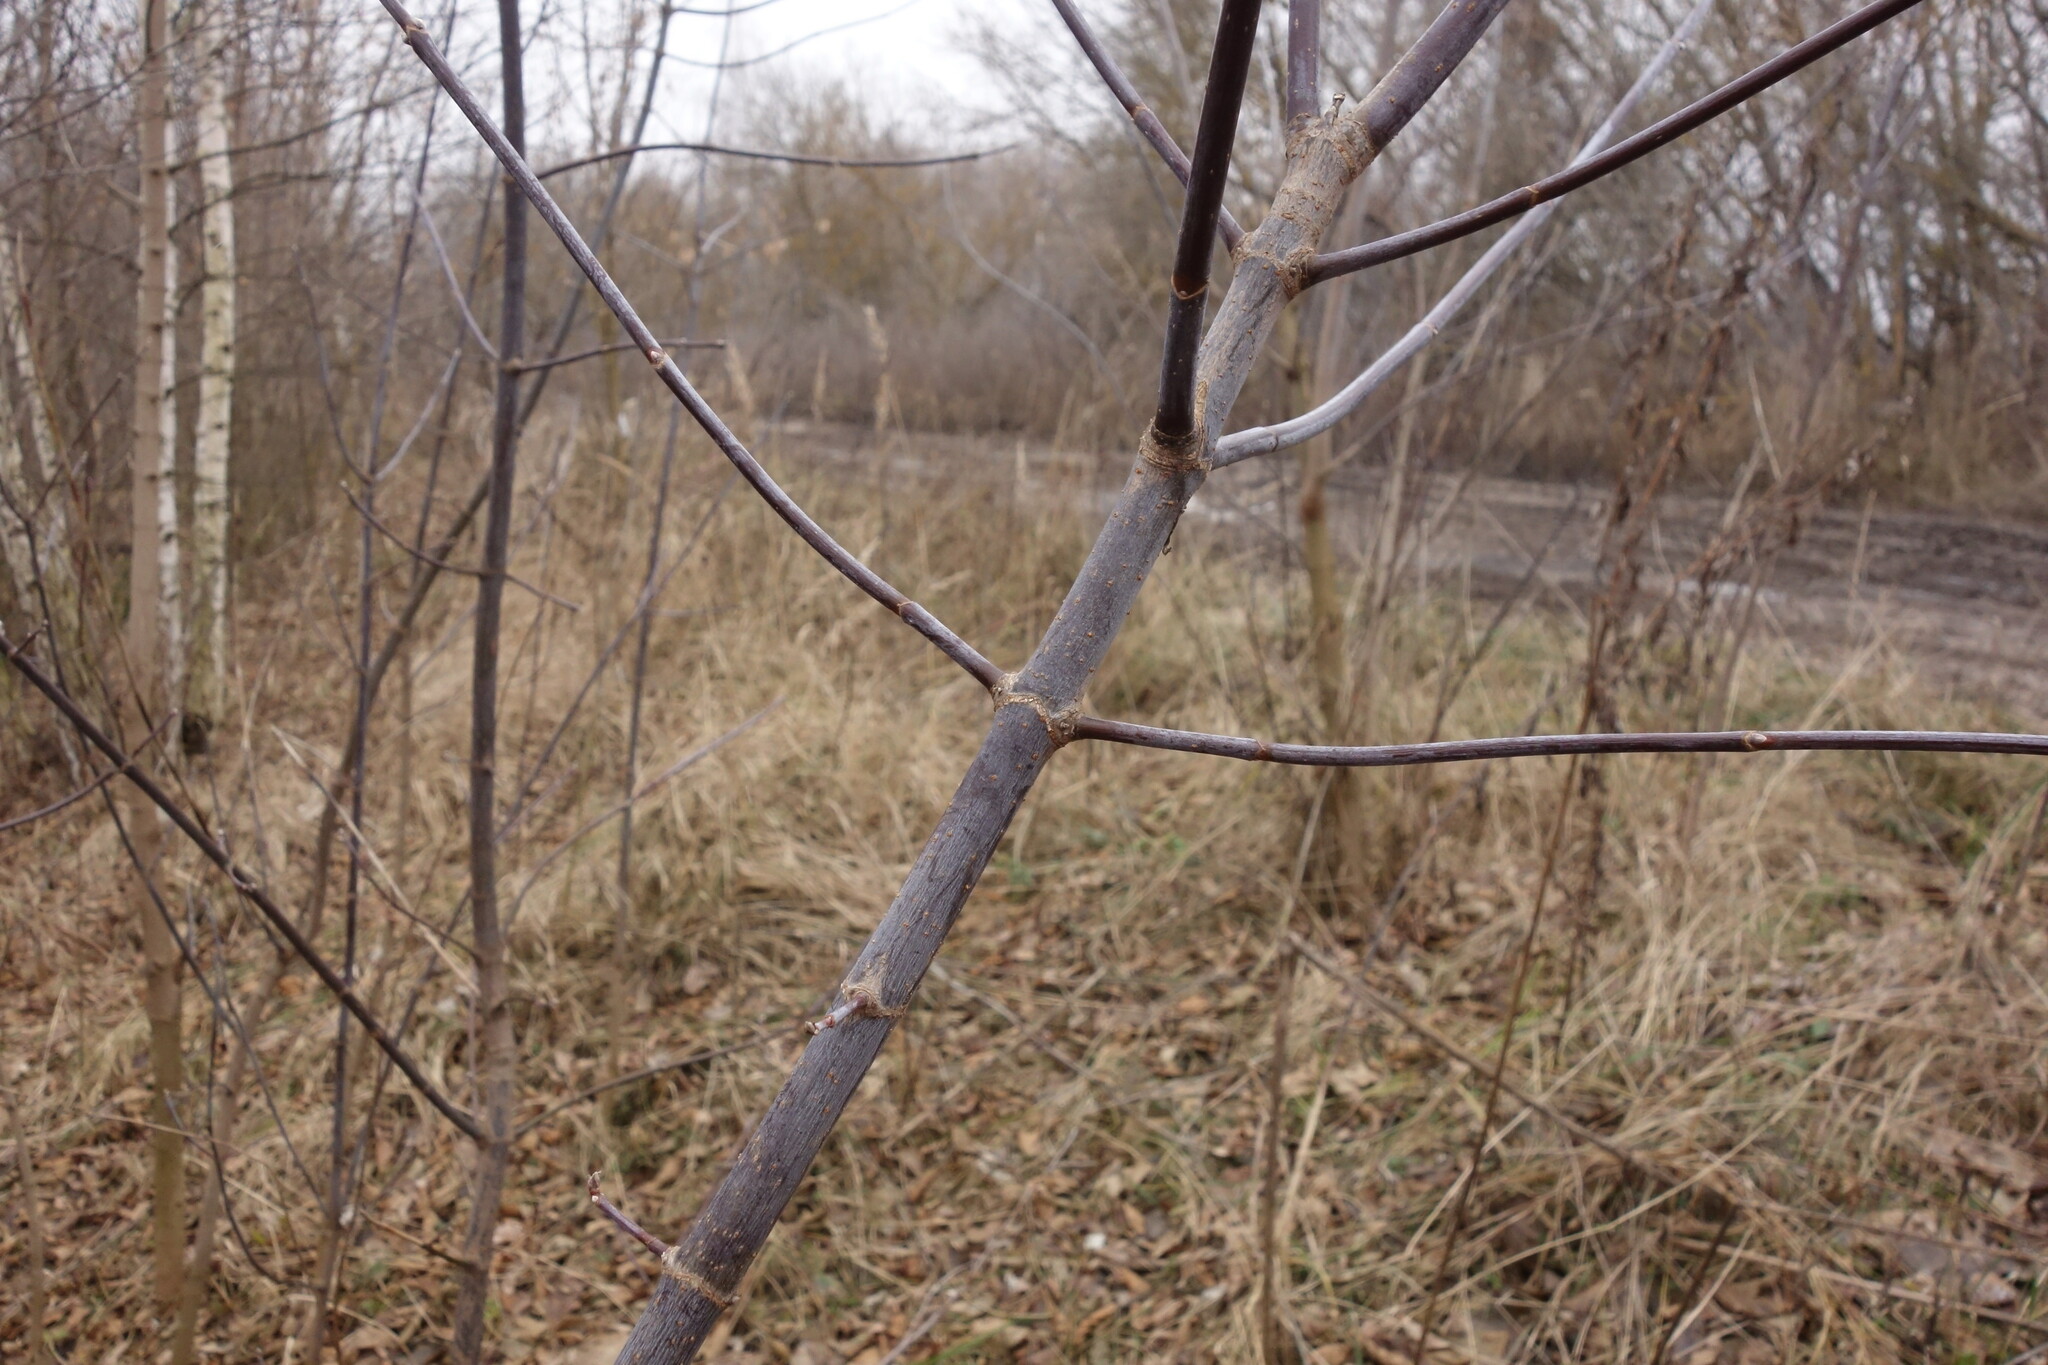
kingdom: Plantae
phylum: Tracheophyta
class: Magnoliopsida
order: Sapindales
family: Sapindaceae
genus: Acer
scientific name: Acer negundo
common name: Ashleaf maple
